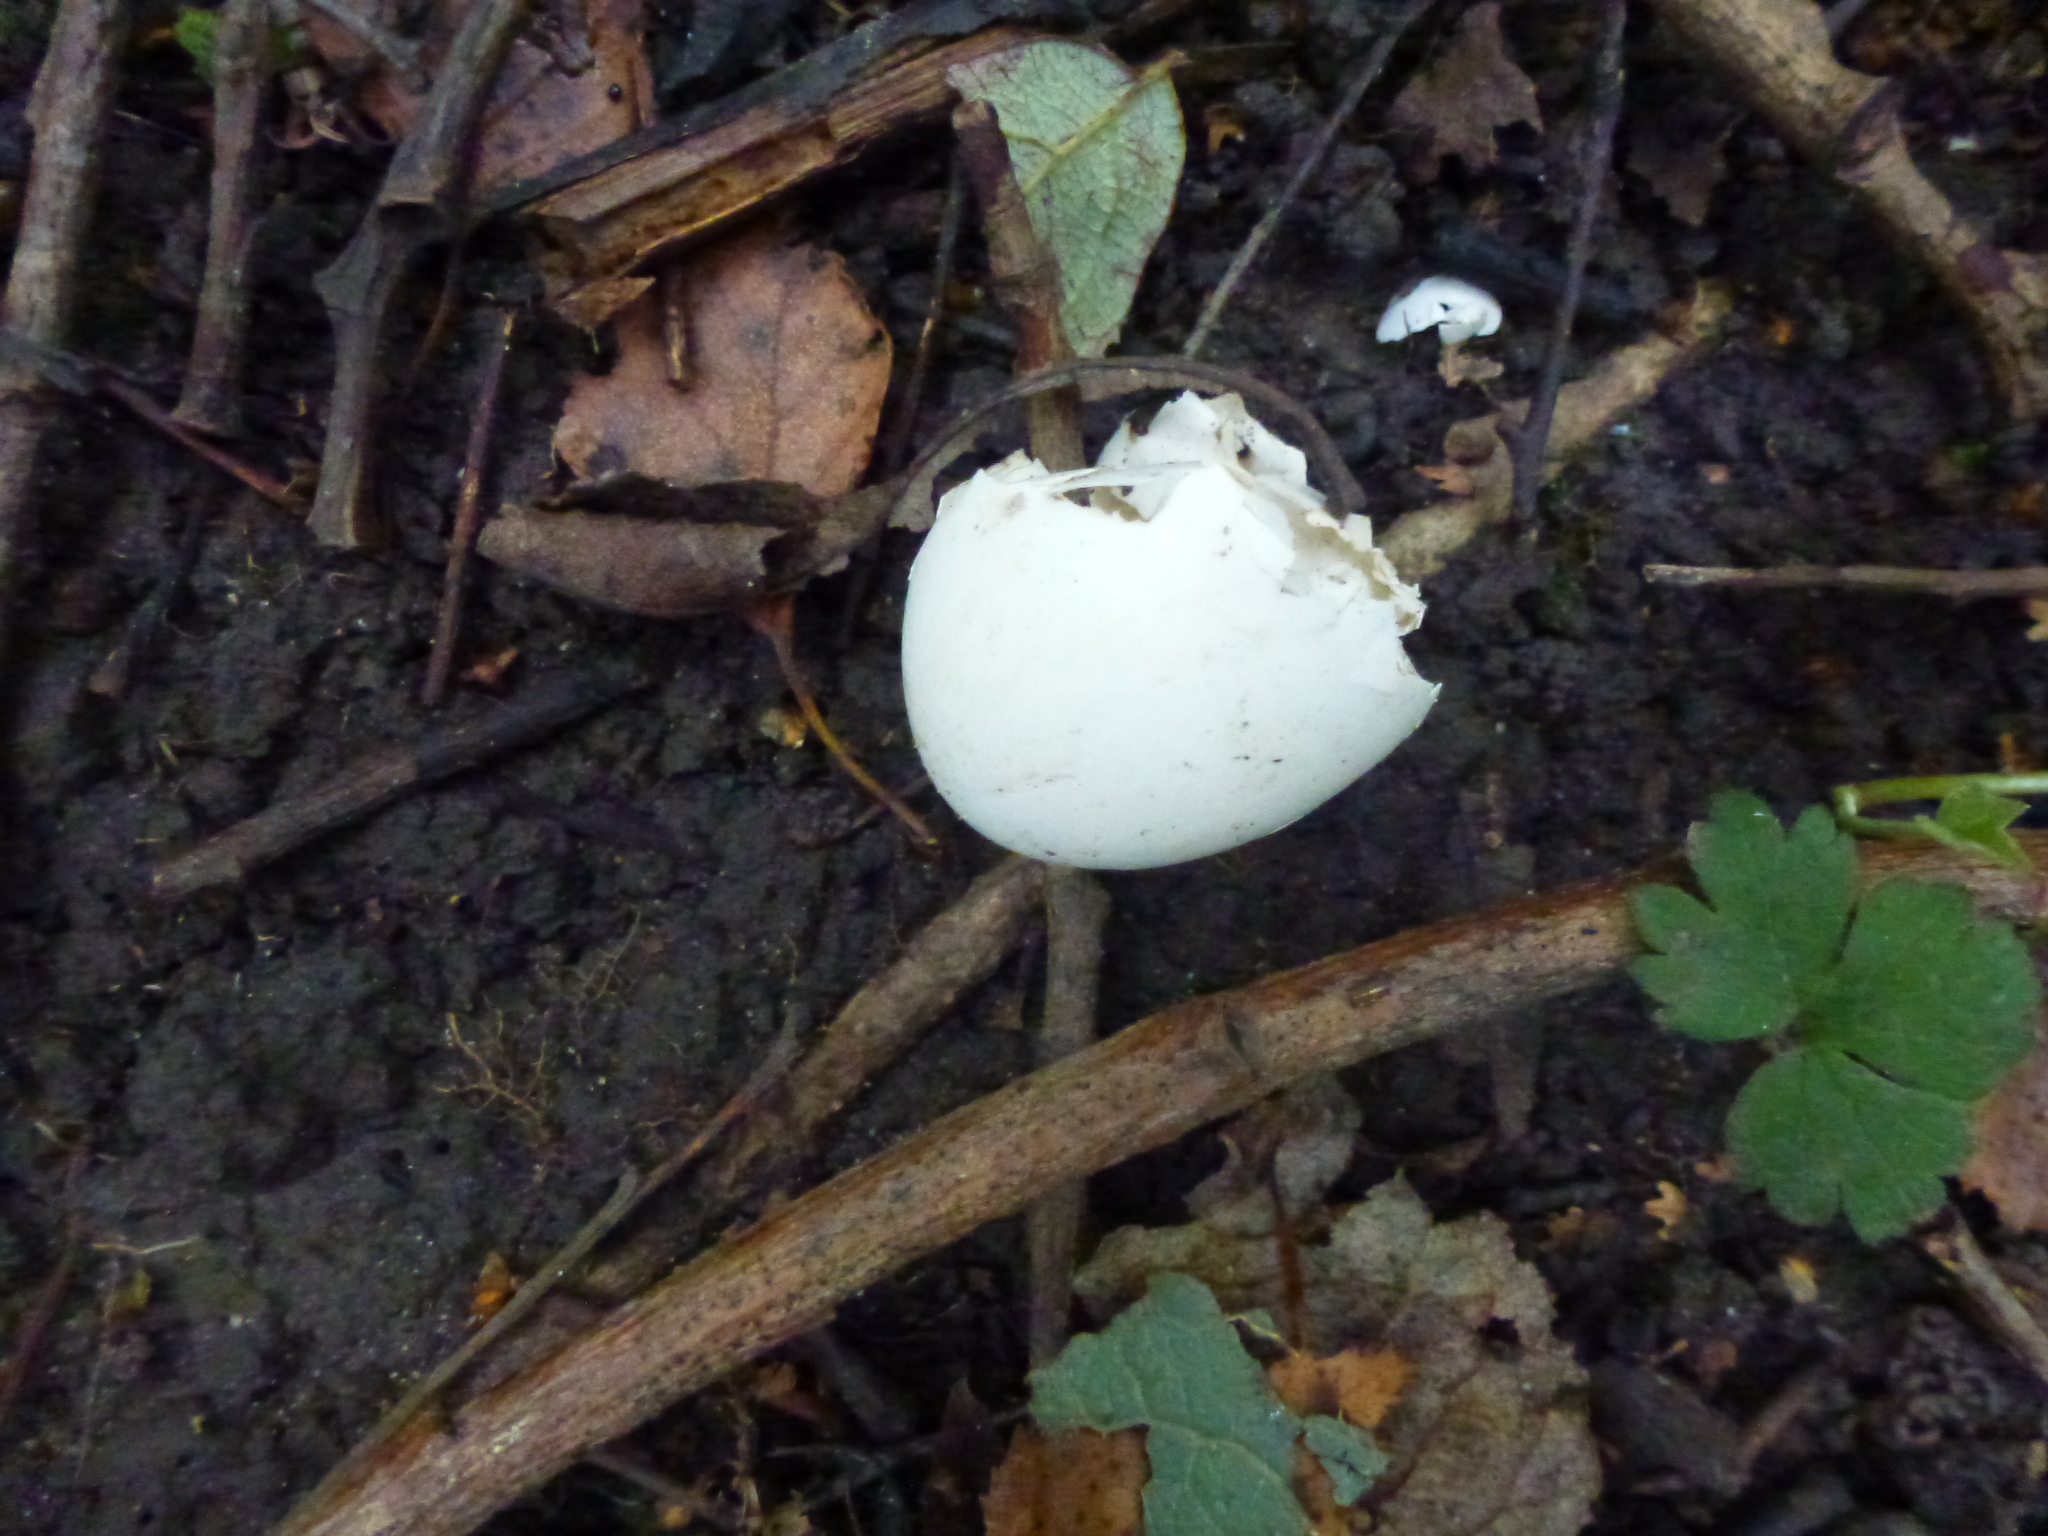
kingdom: Animalia
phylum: Chordata
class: Aves
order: Columbiformes
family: Columbidae
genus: Columba
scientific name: Columba palumbus
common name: Common wood pigeon
